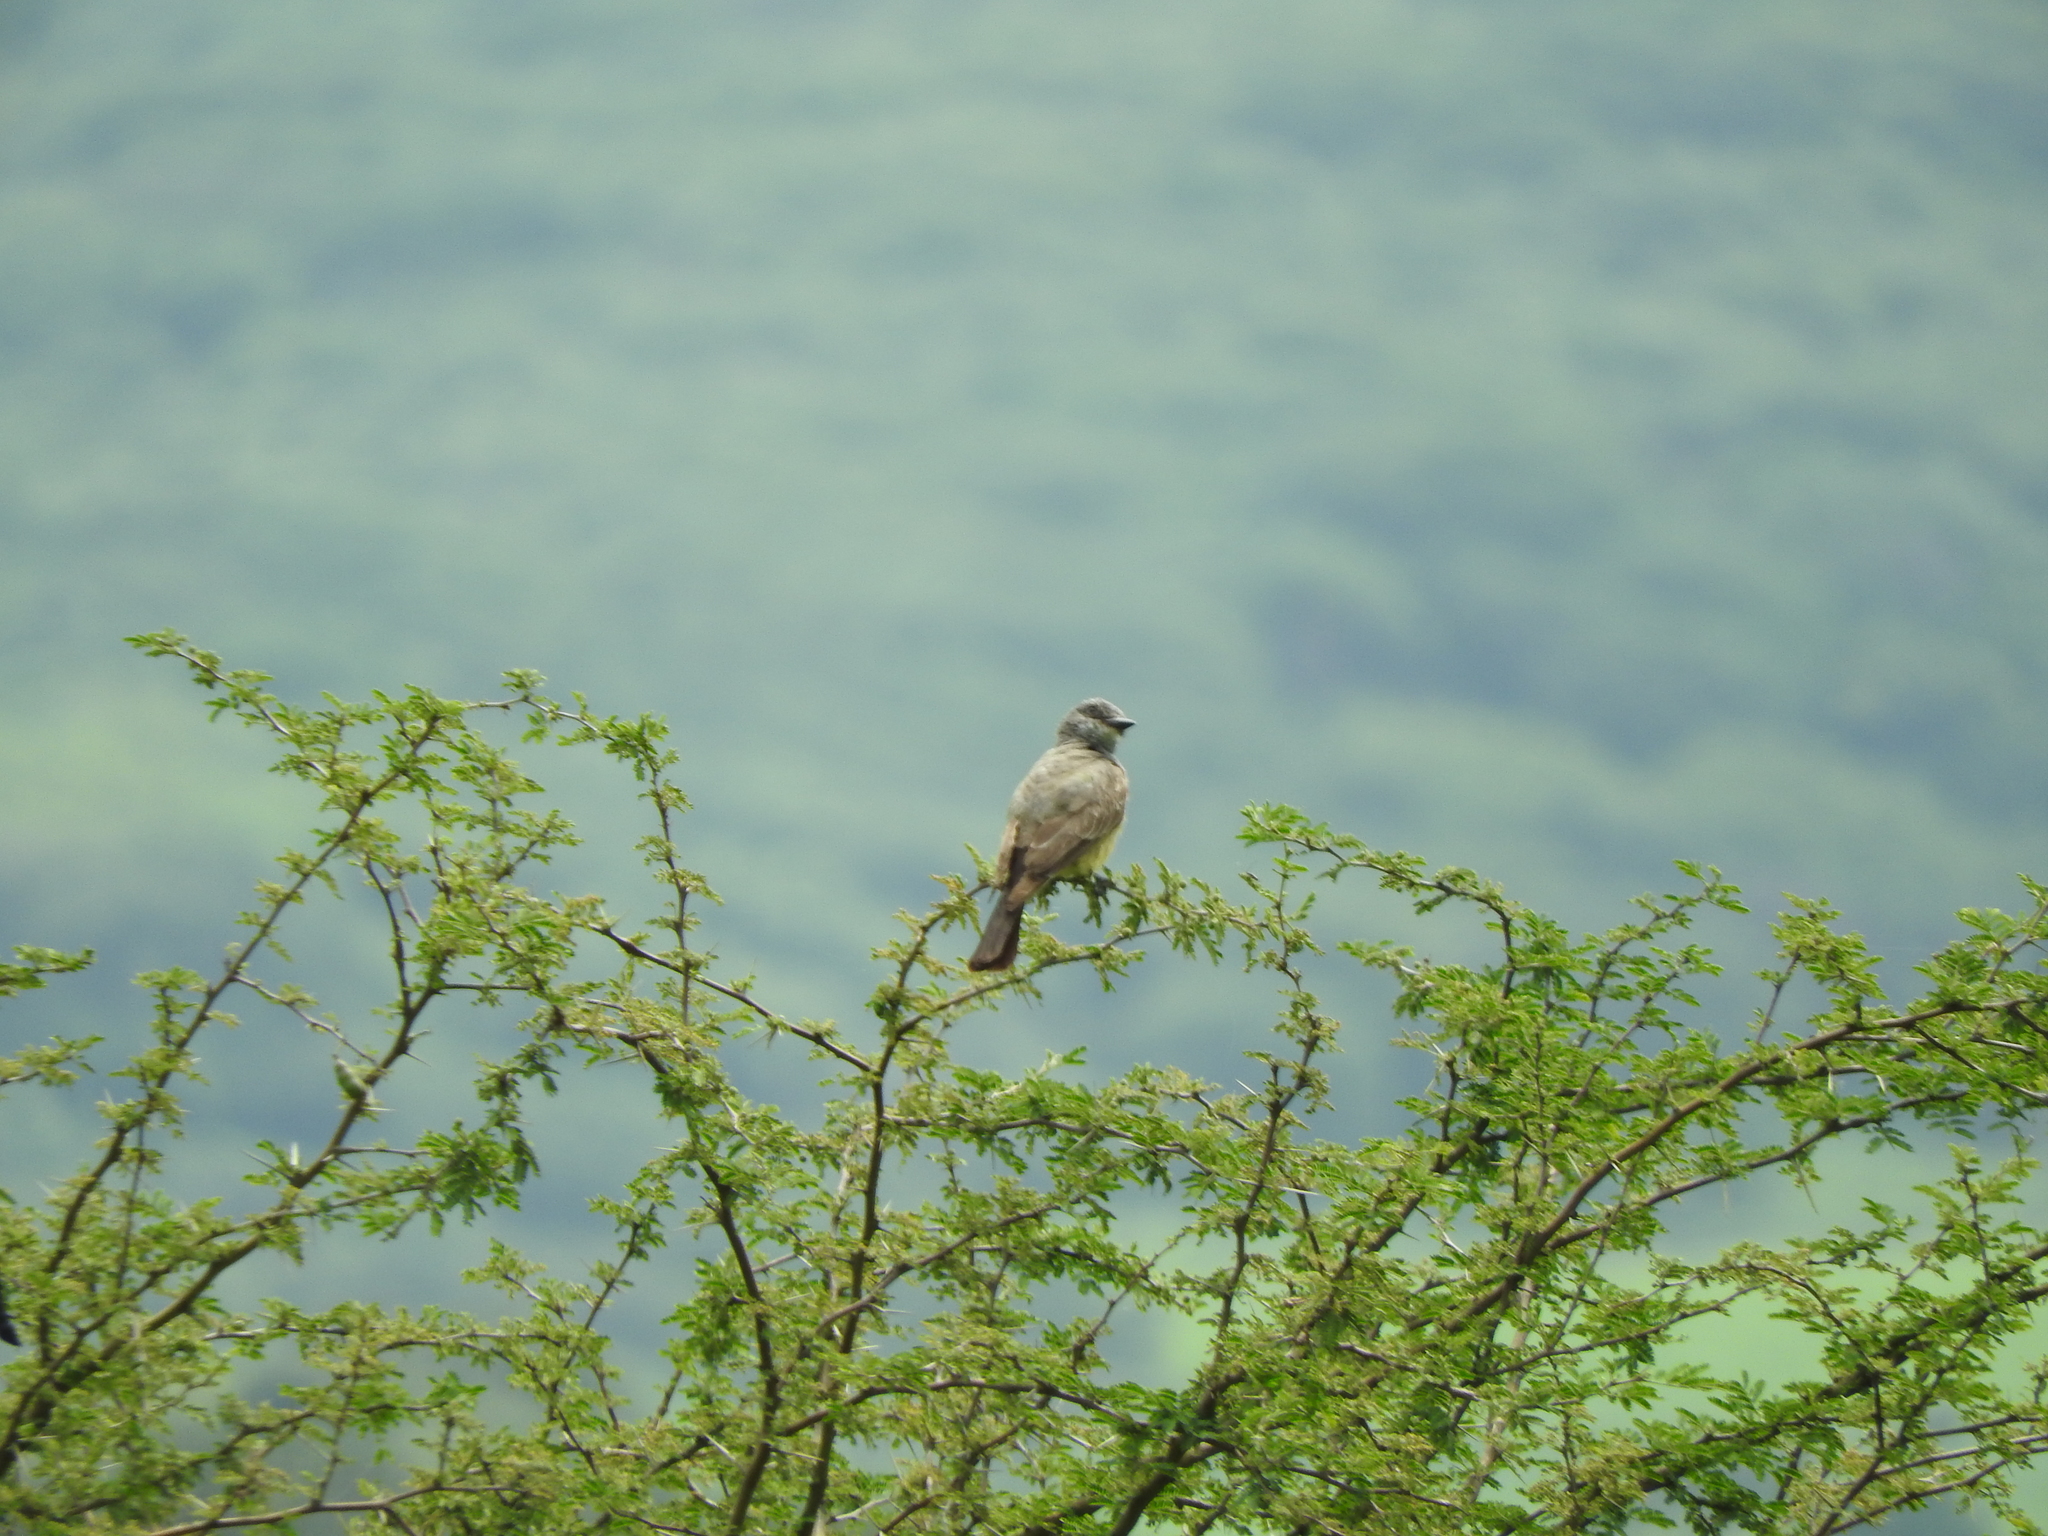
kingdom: Animalia
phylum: Chordata
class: Aves
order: Passeriformes
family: Tyrannidae
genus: Tyrannus
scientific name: Tyrannus vociferans
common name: Cassin's kingbird
